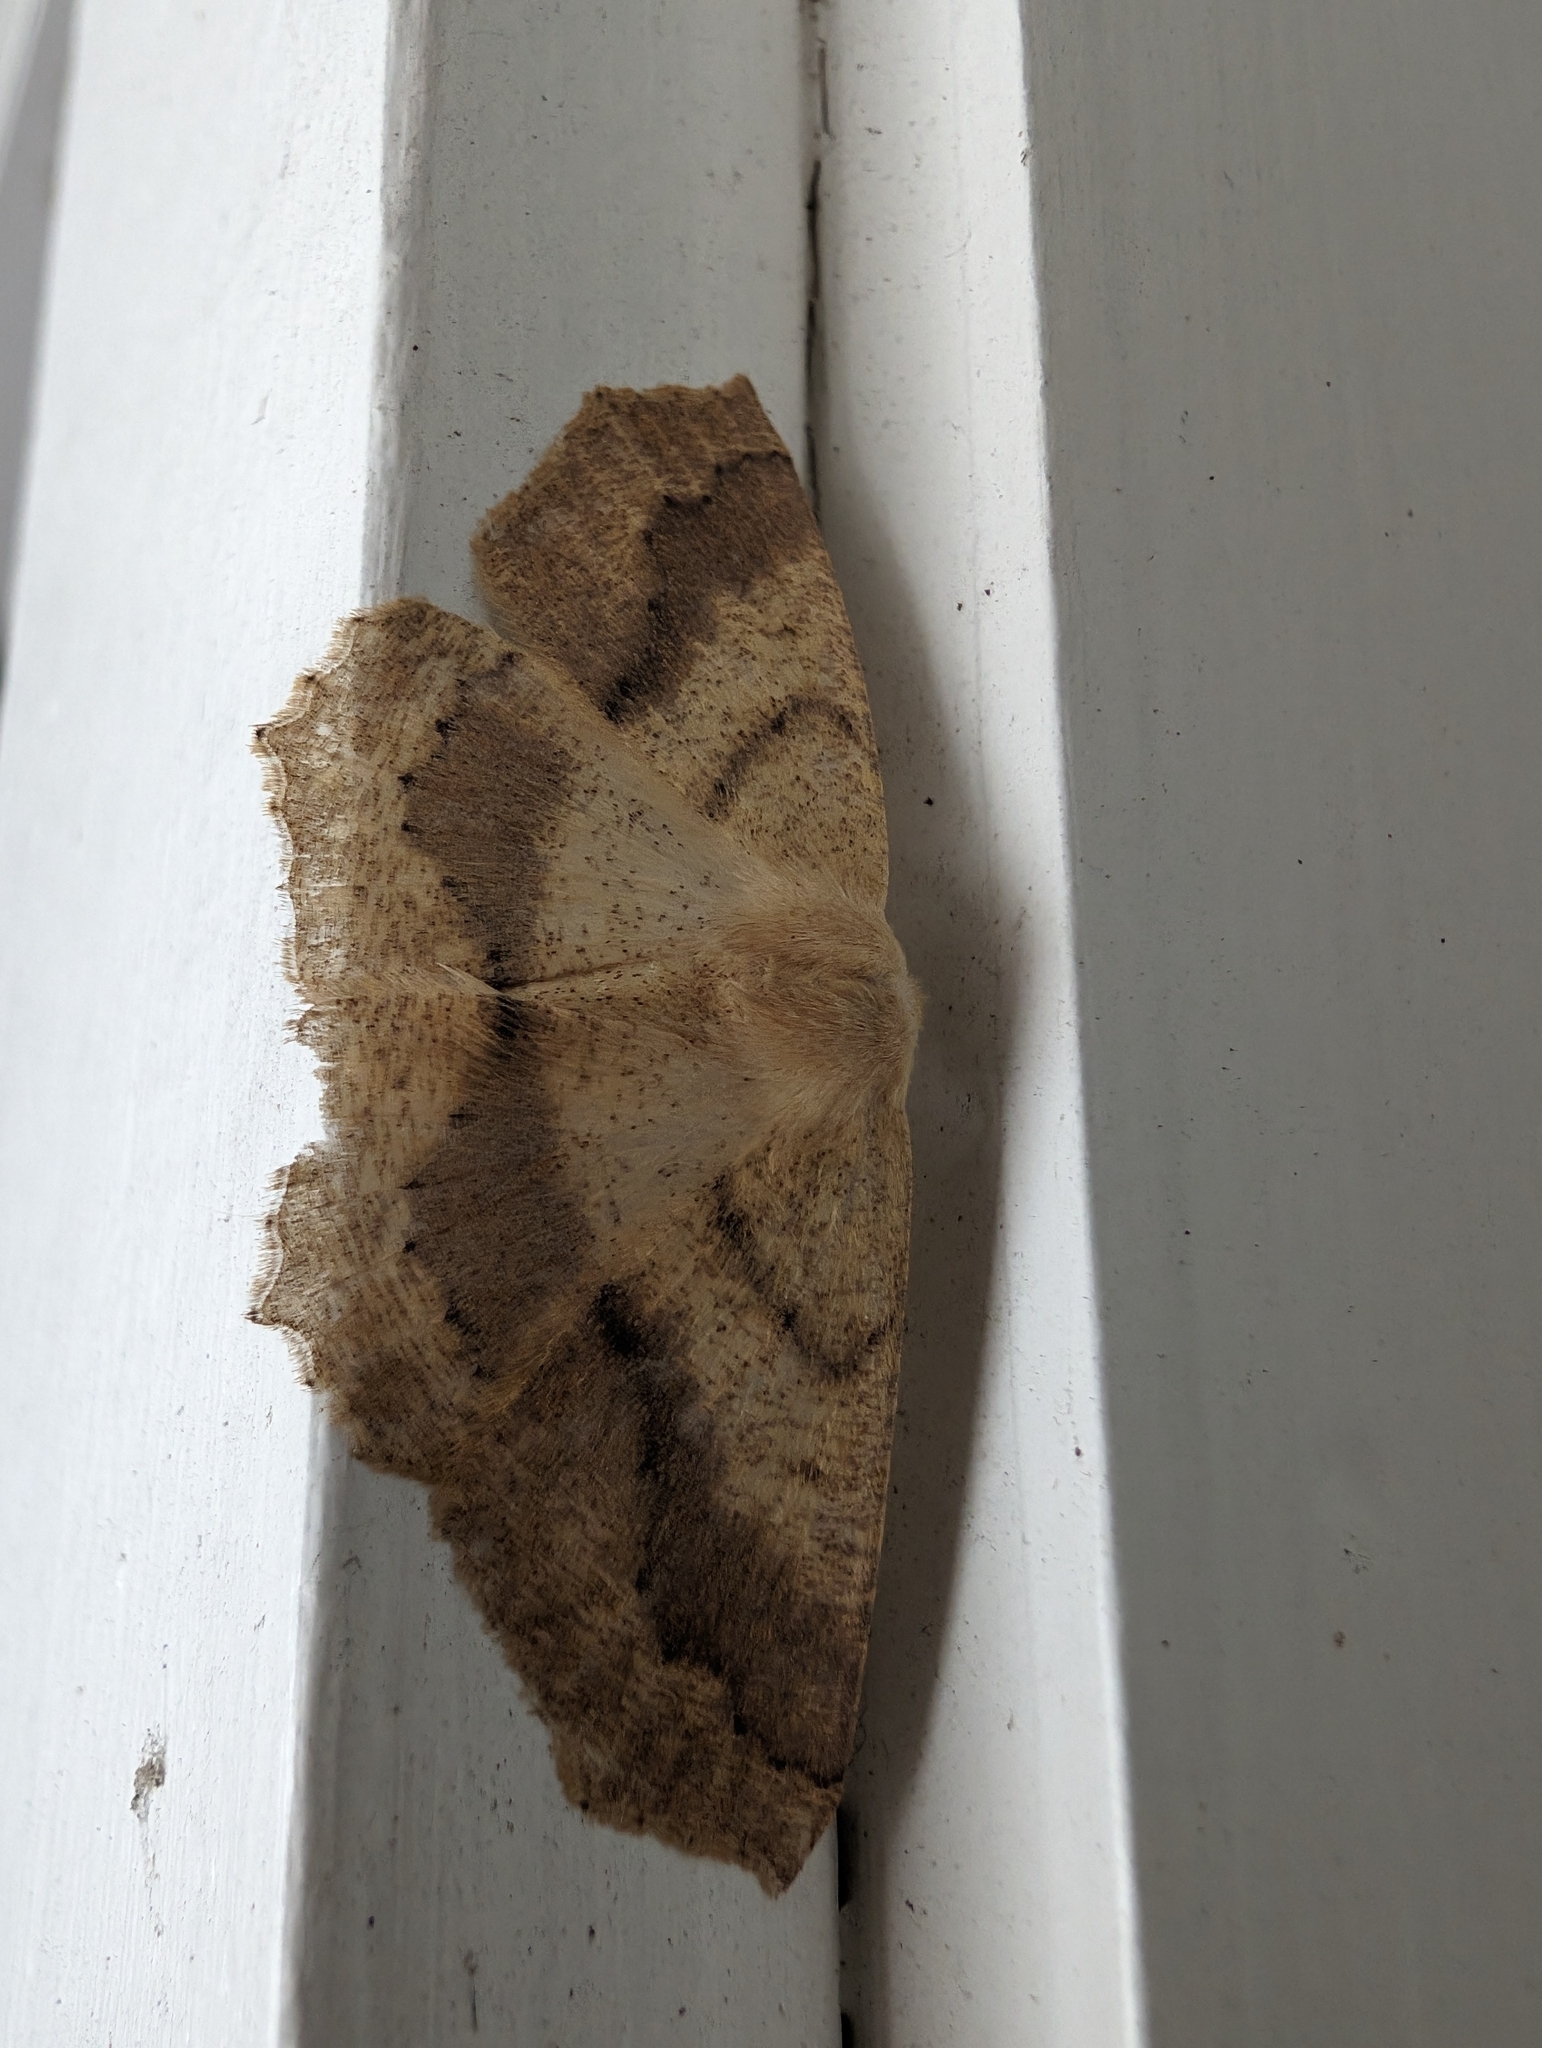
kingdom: Animalia
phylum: Arthropoda
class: Insecta
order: Lepidoptera
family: Geometridae
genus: Sabulodes
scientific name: Sabulodes aegrotata
